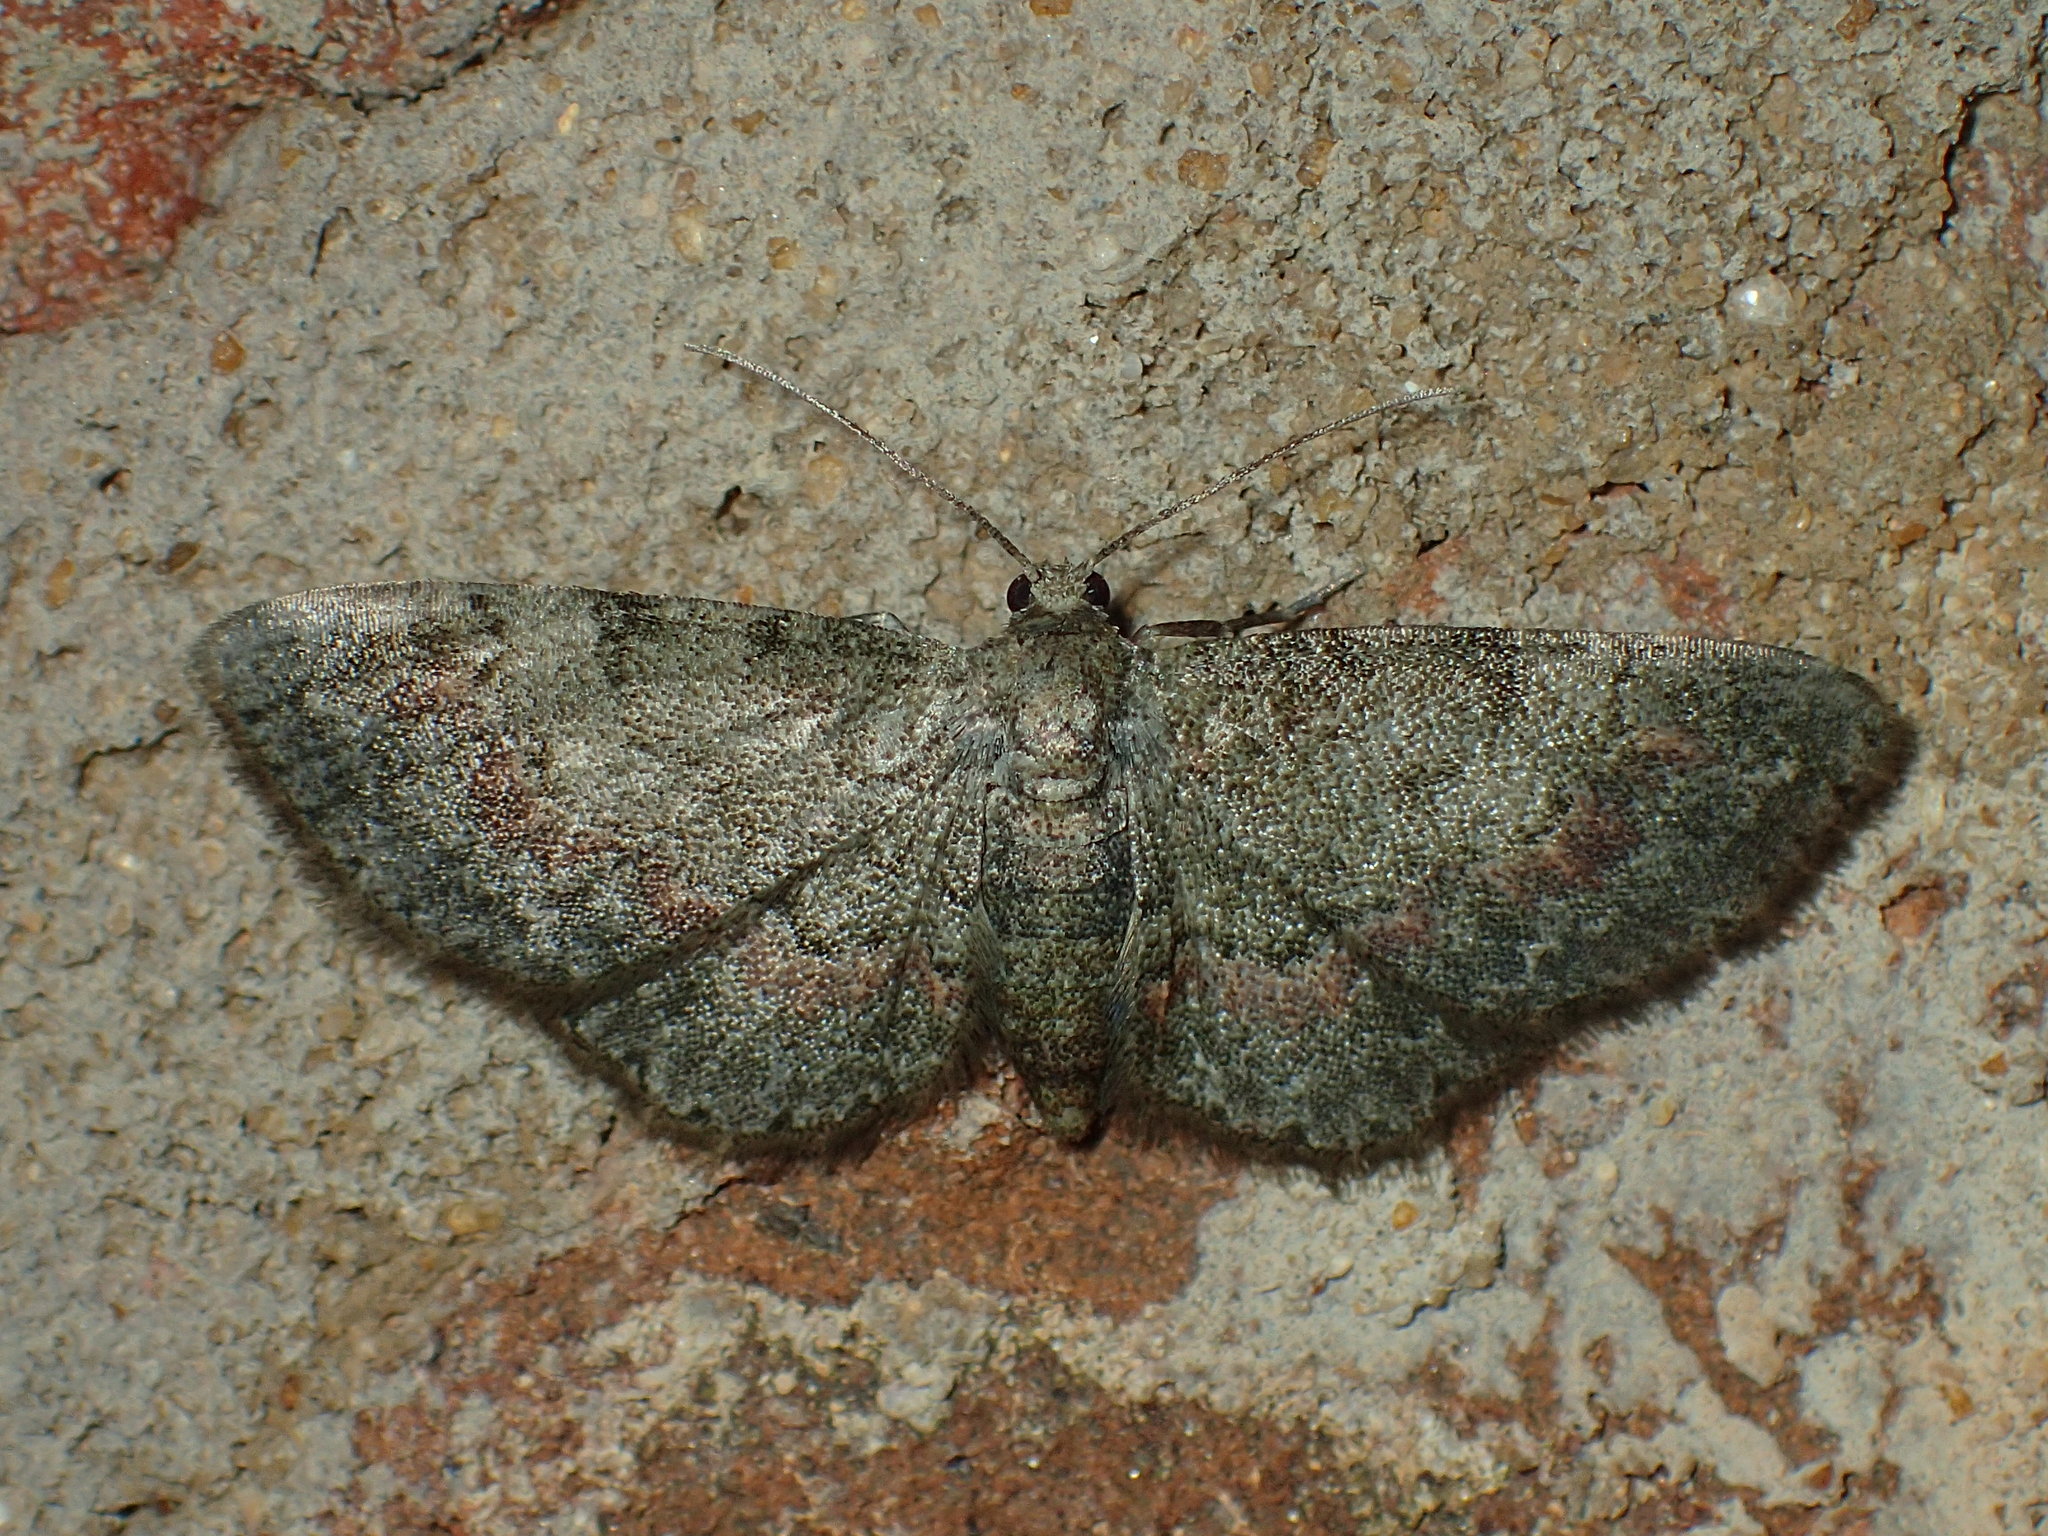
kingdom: Animalia
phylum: Arthropoda
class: Insecta
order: Lepidoptera
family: Geometridae
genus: Glenoides
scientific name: Glenoides texanaria
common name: Texas gray
